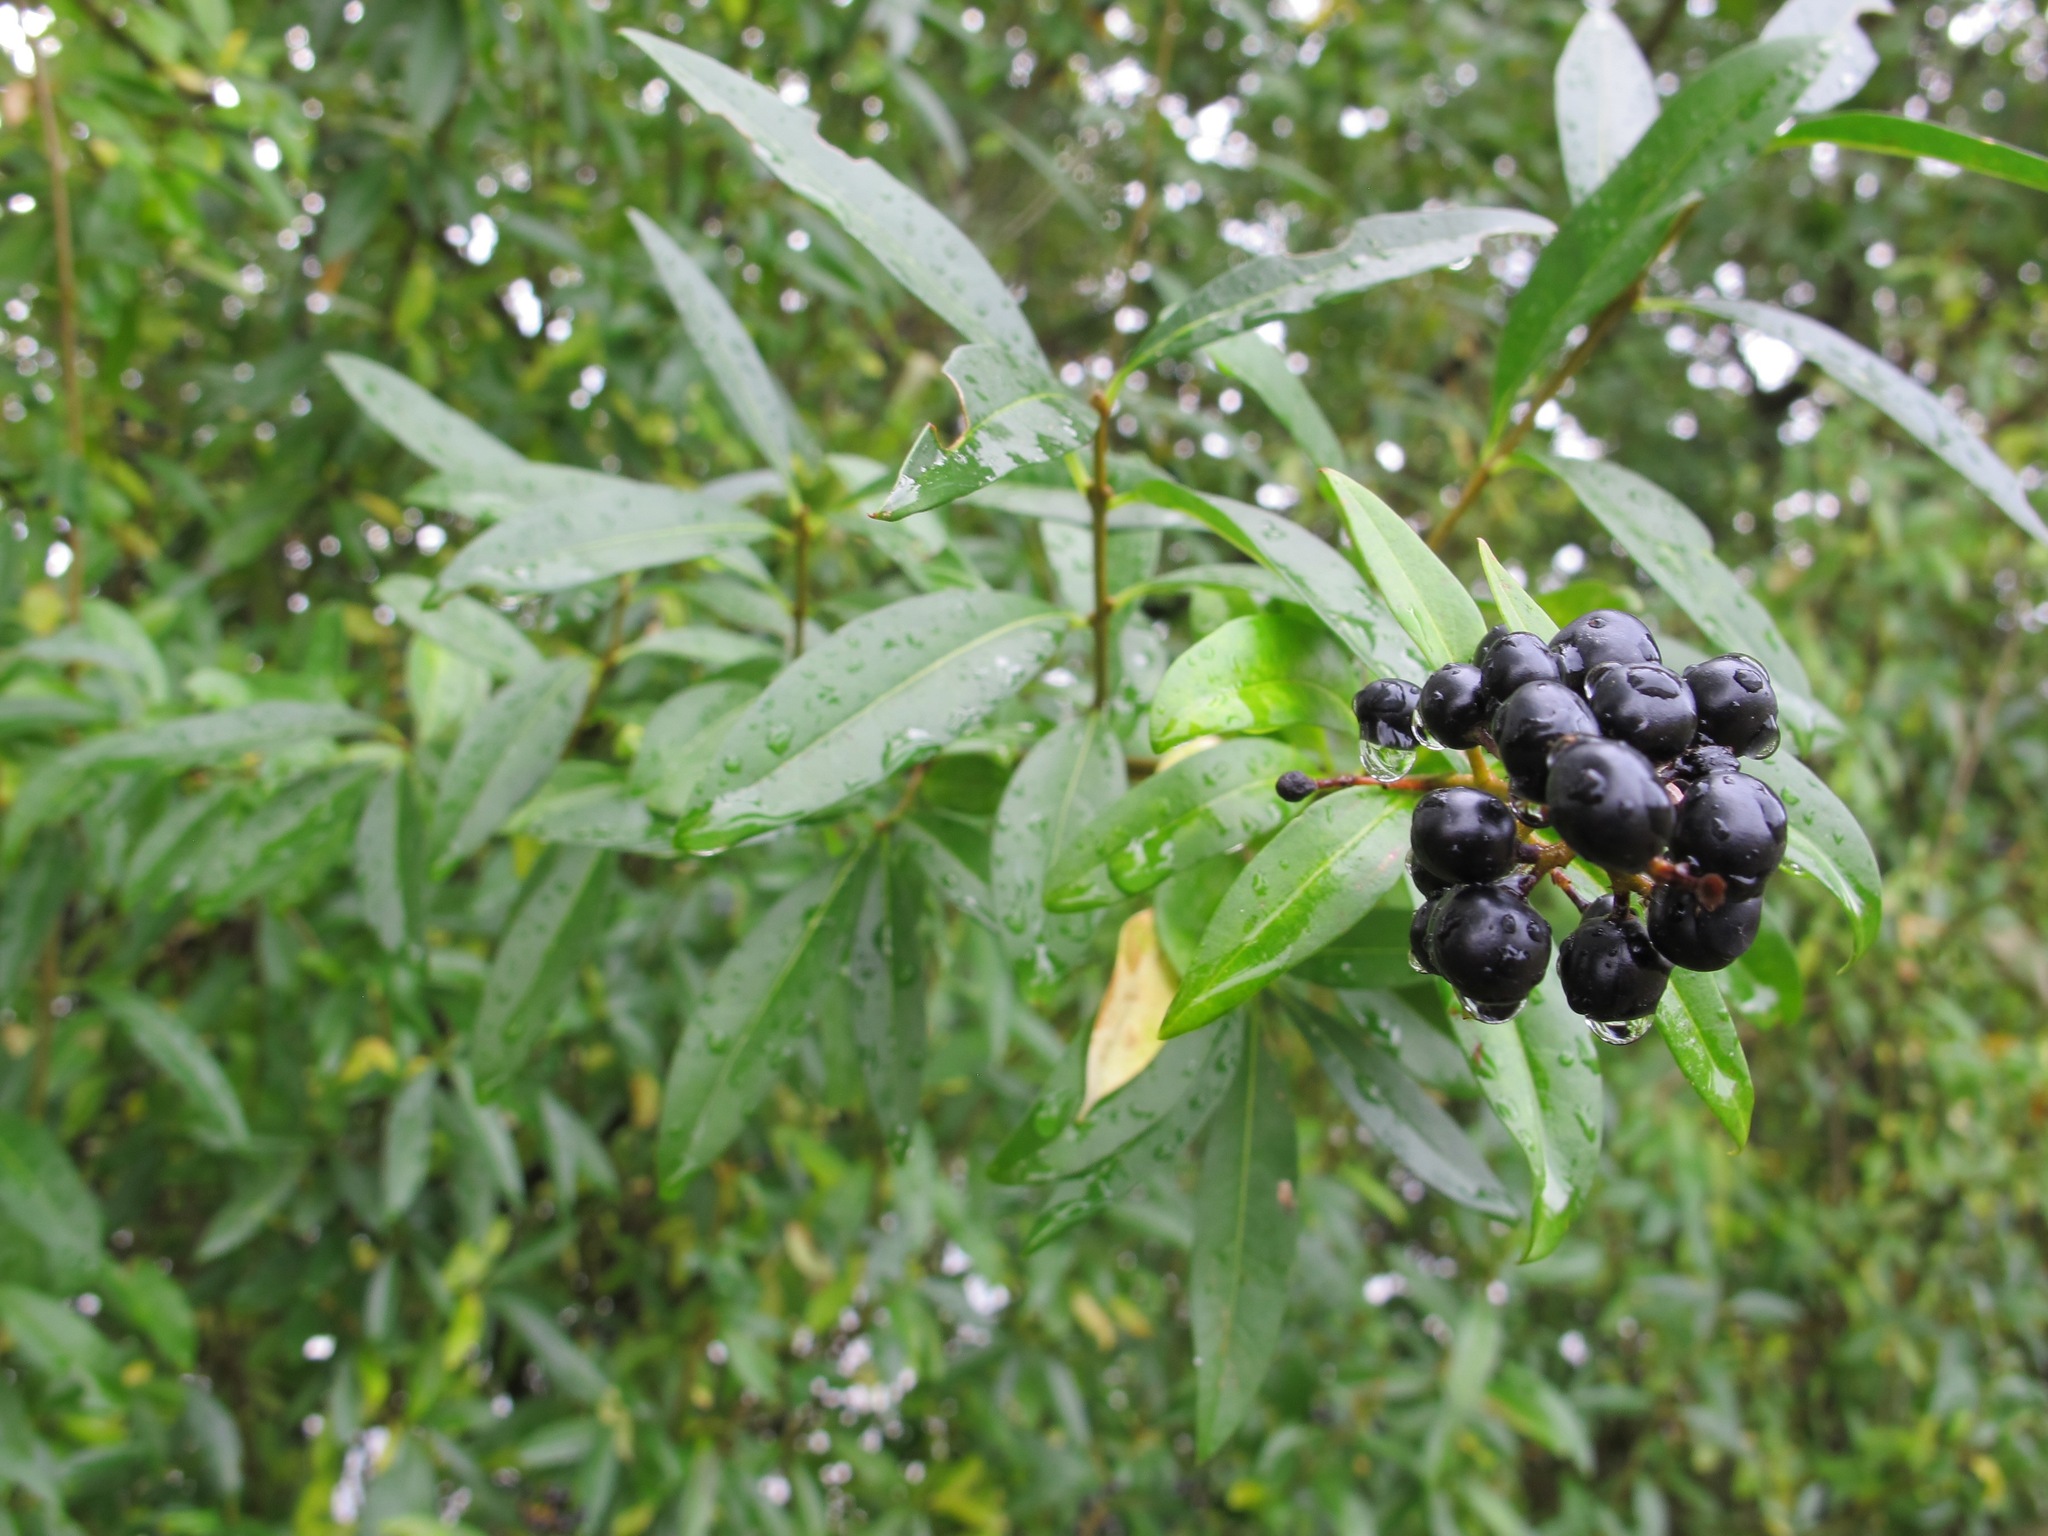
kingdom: Plantae
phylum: Tracheophyta
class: Magnoliopsida
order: Lamiales
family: Oleaceae
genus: Ligustrum
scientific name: Ligustrum vulgare
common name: Wild privet
